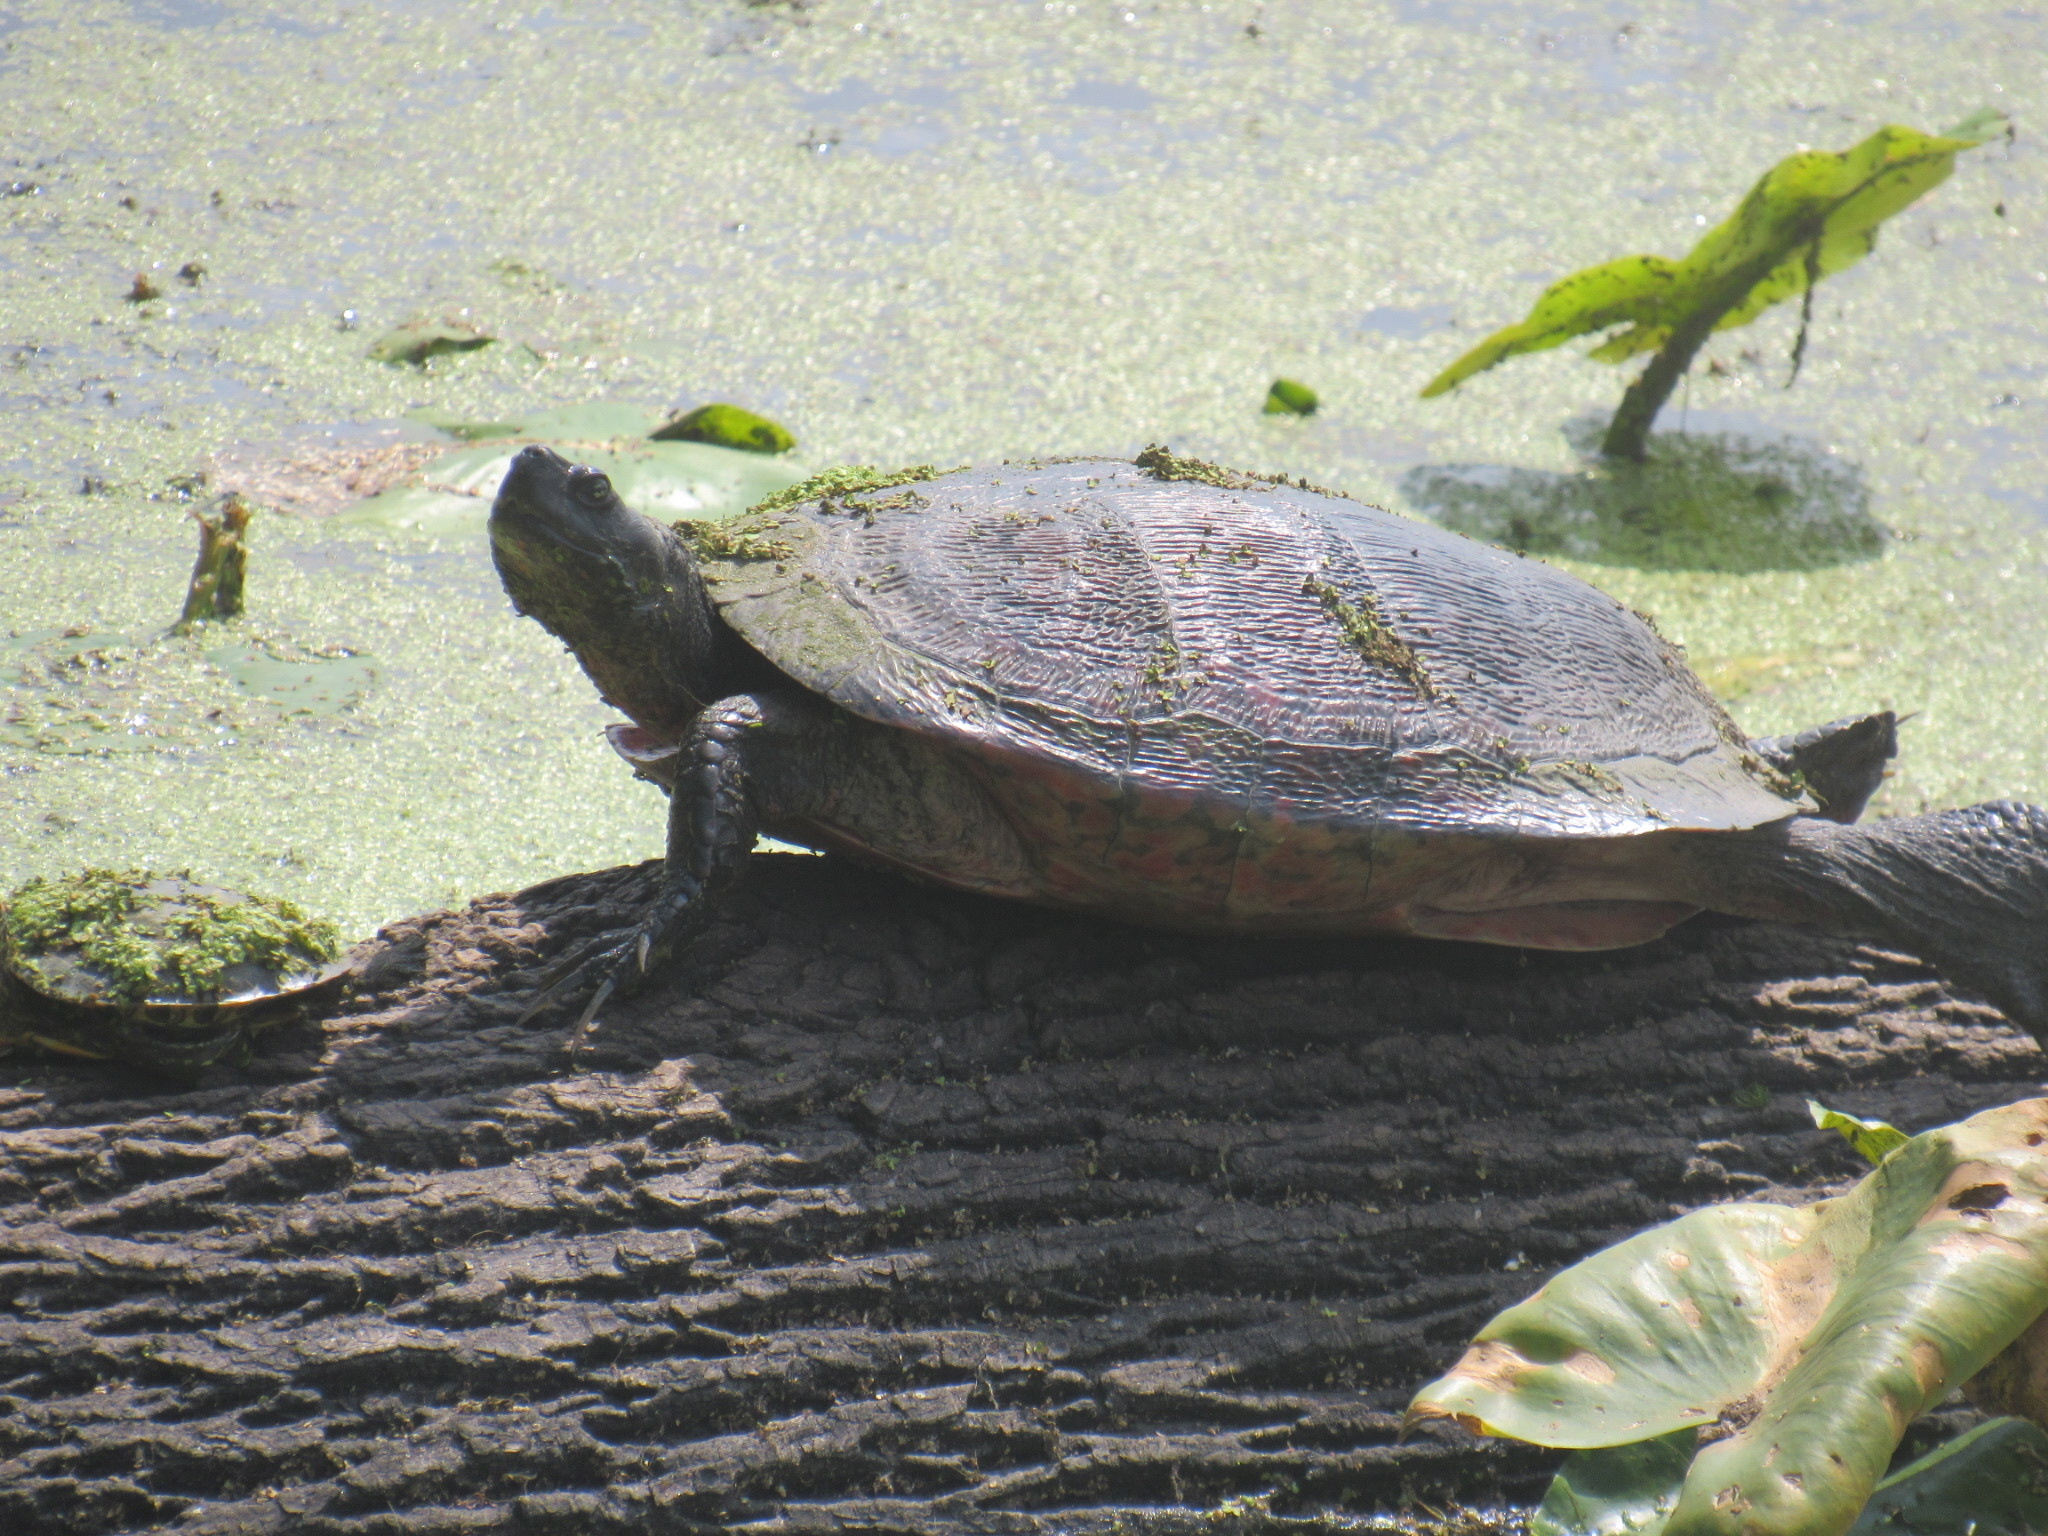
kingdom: Animalia
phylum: Chordata
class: Testudines
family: Emydidae
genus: Pseudemys
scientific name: Pseudemys rubriventris
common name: American red-bellied turtle
